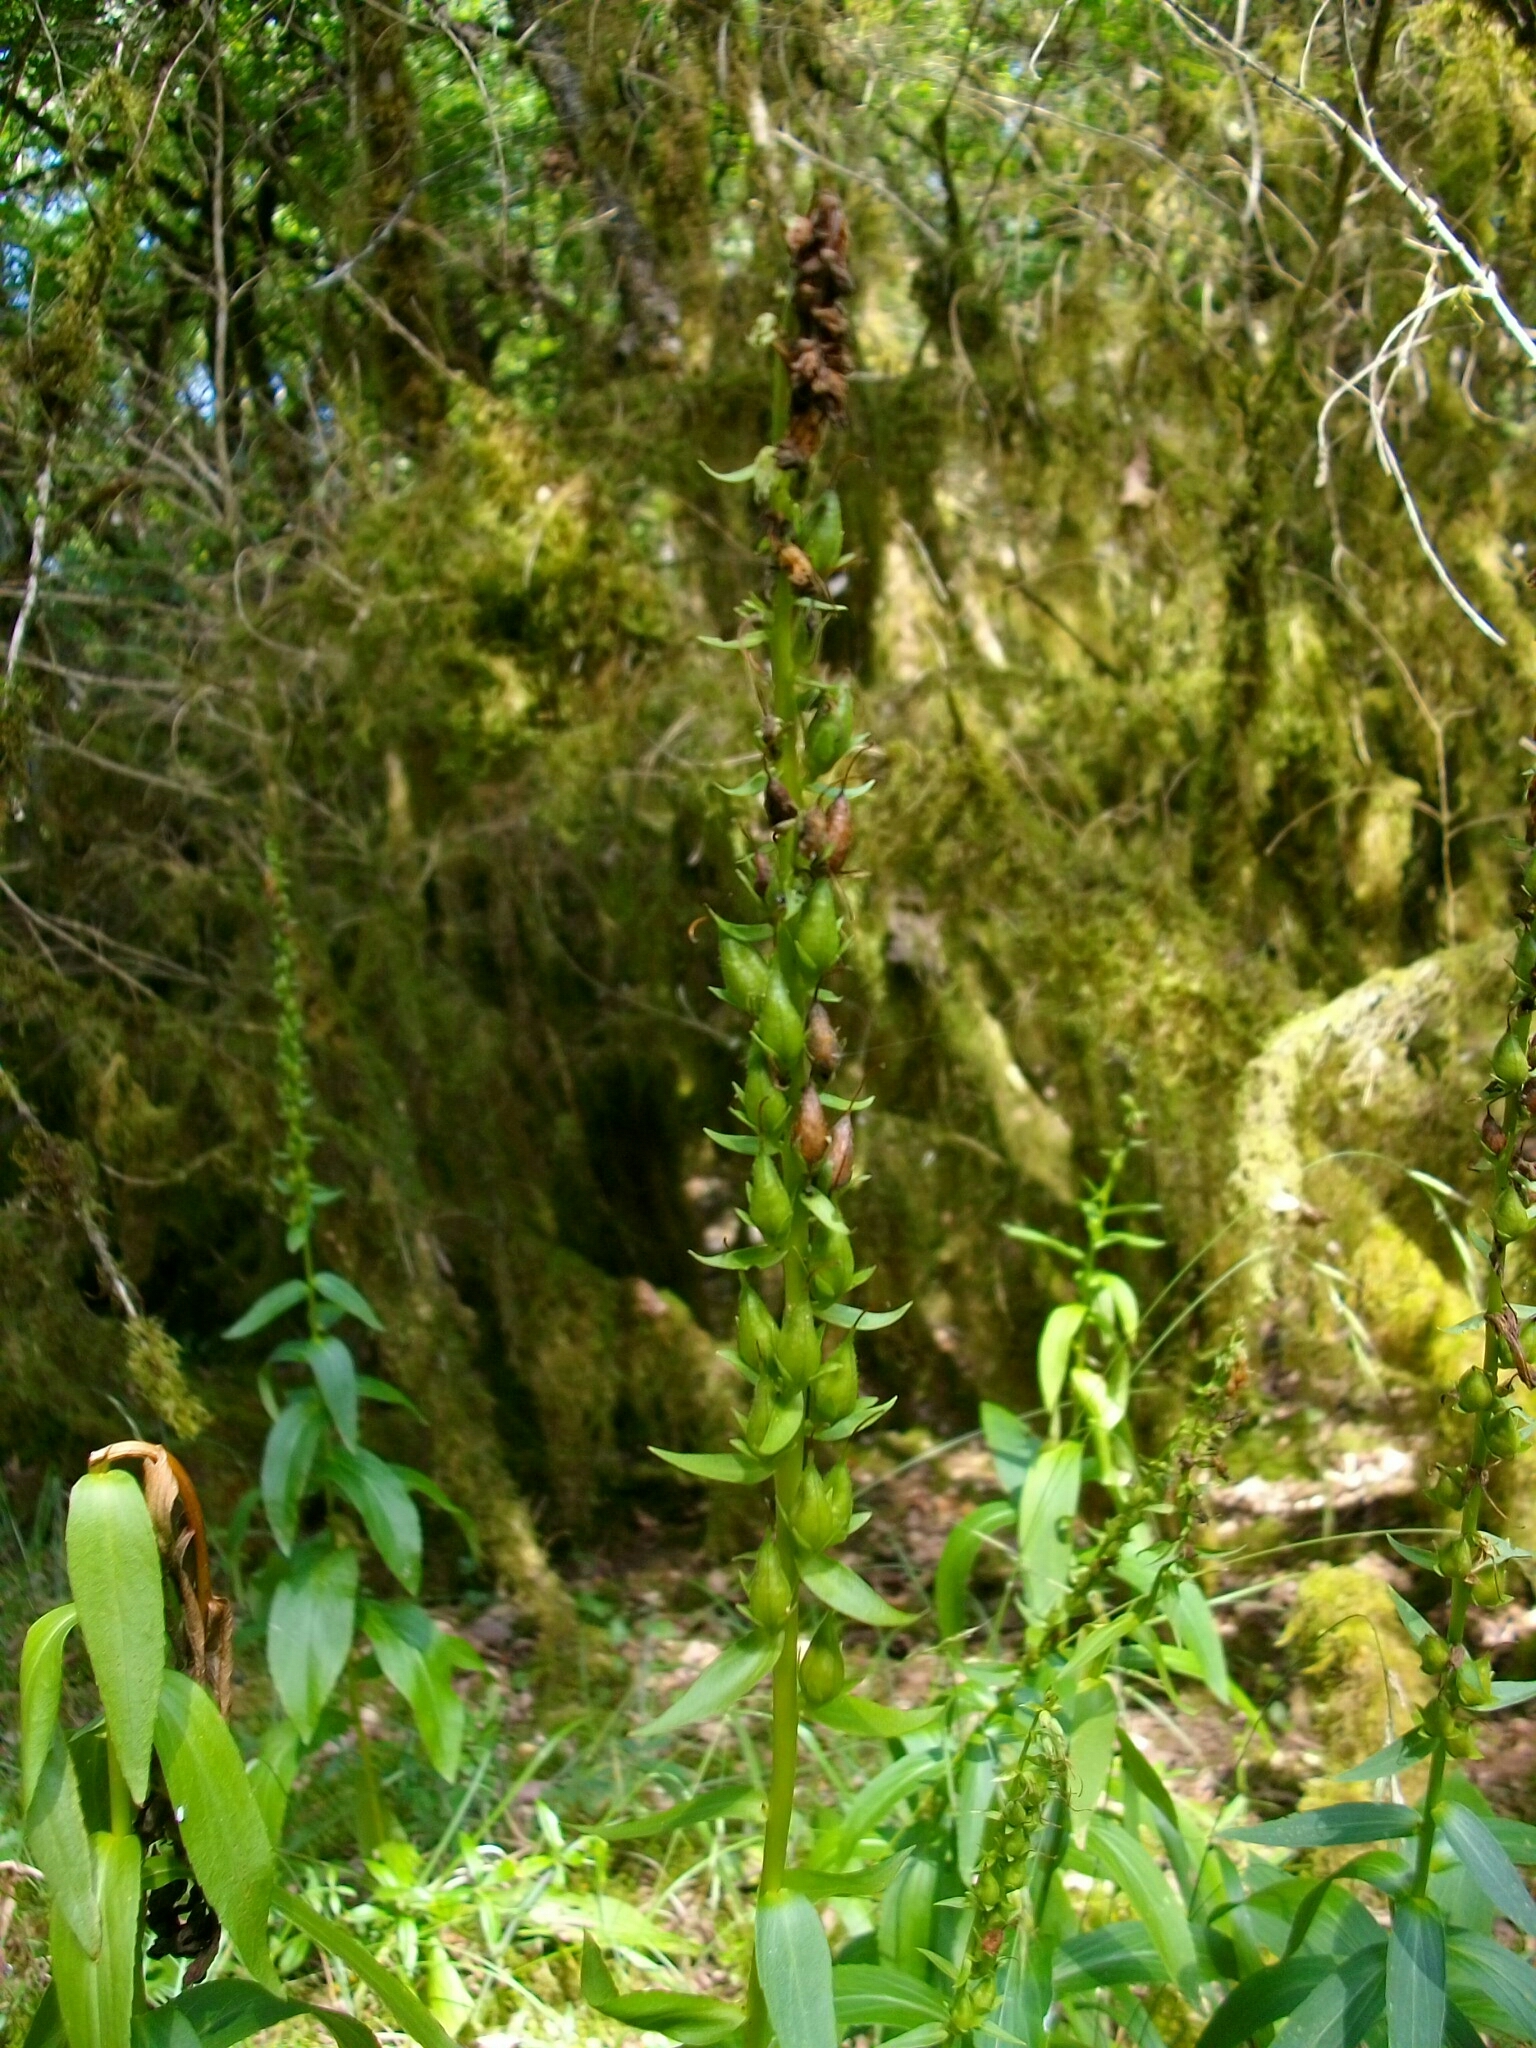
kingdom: Plantae
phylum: Tracheophyta
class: Magnoliopsida
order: Lamiales
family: Plantaginaceae
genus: Digitalis
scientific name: Digitalis lutea
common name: Straw foxglove
